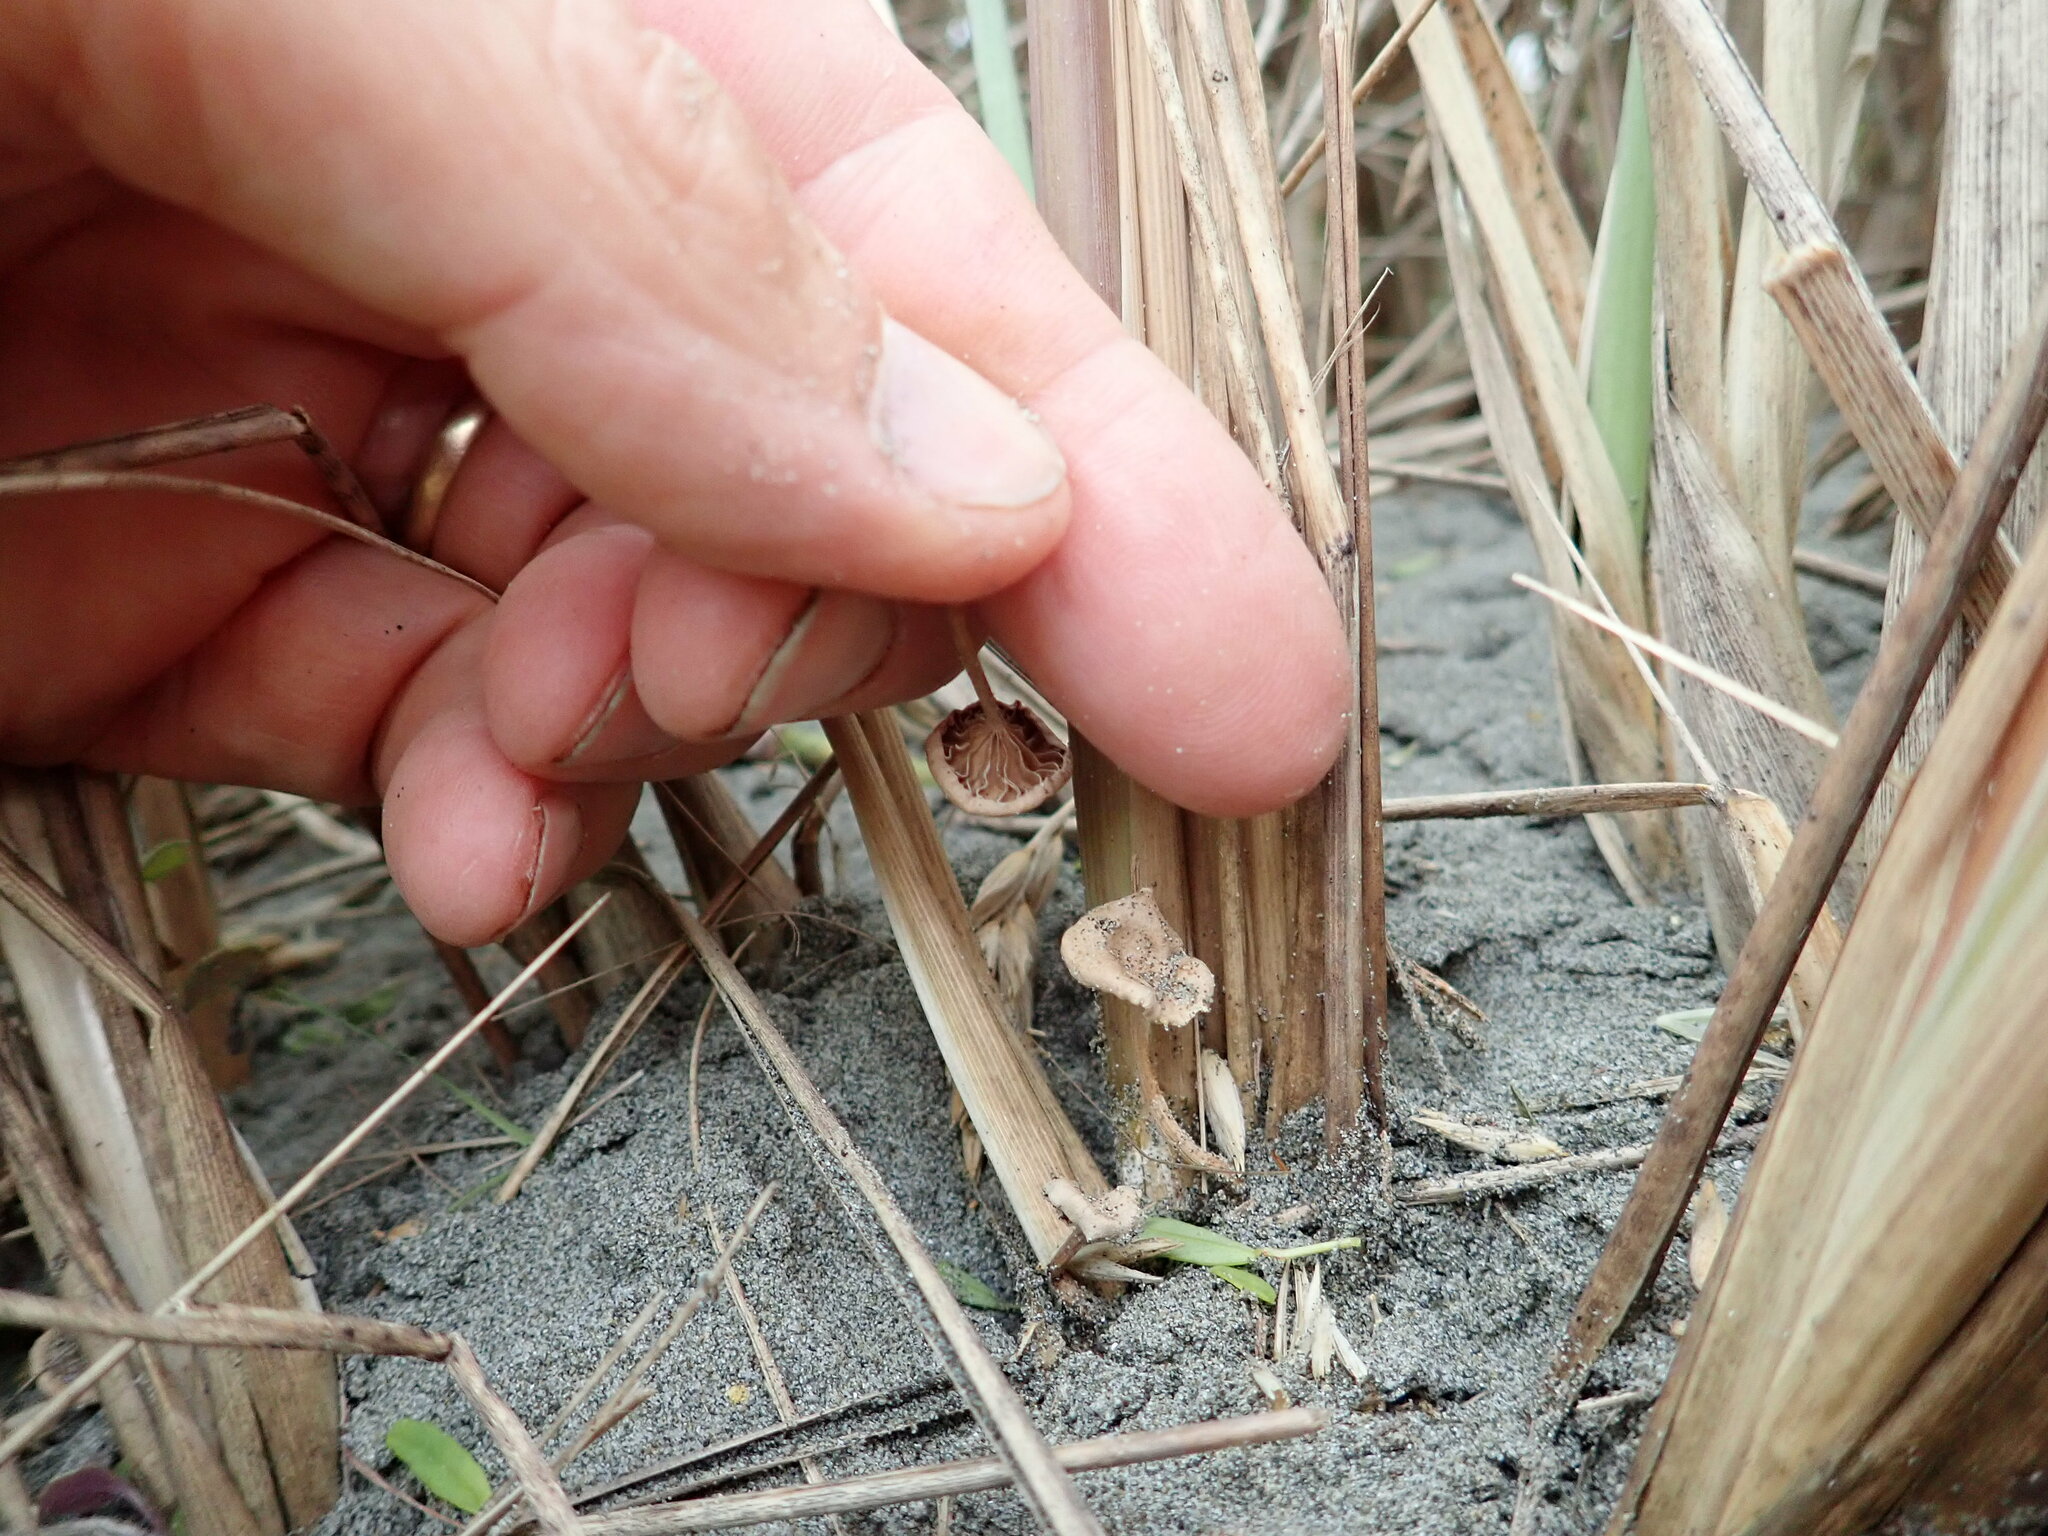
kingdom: Fungi
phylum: Basidiomycota
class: Agaricomycetes
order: Agaricales
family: Marasmiaceae
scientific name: Marasmiaceae
